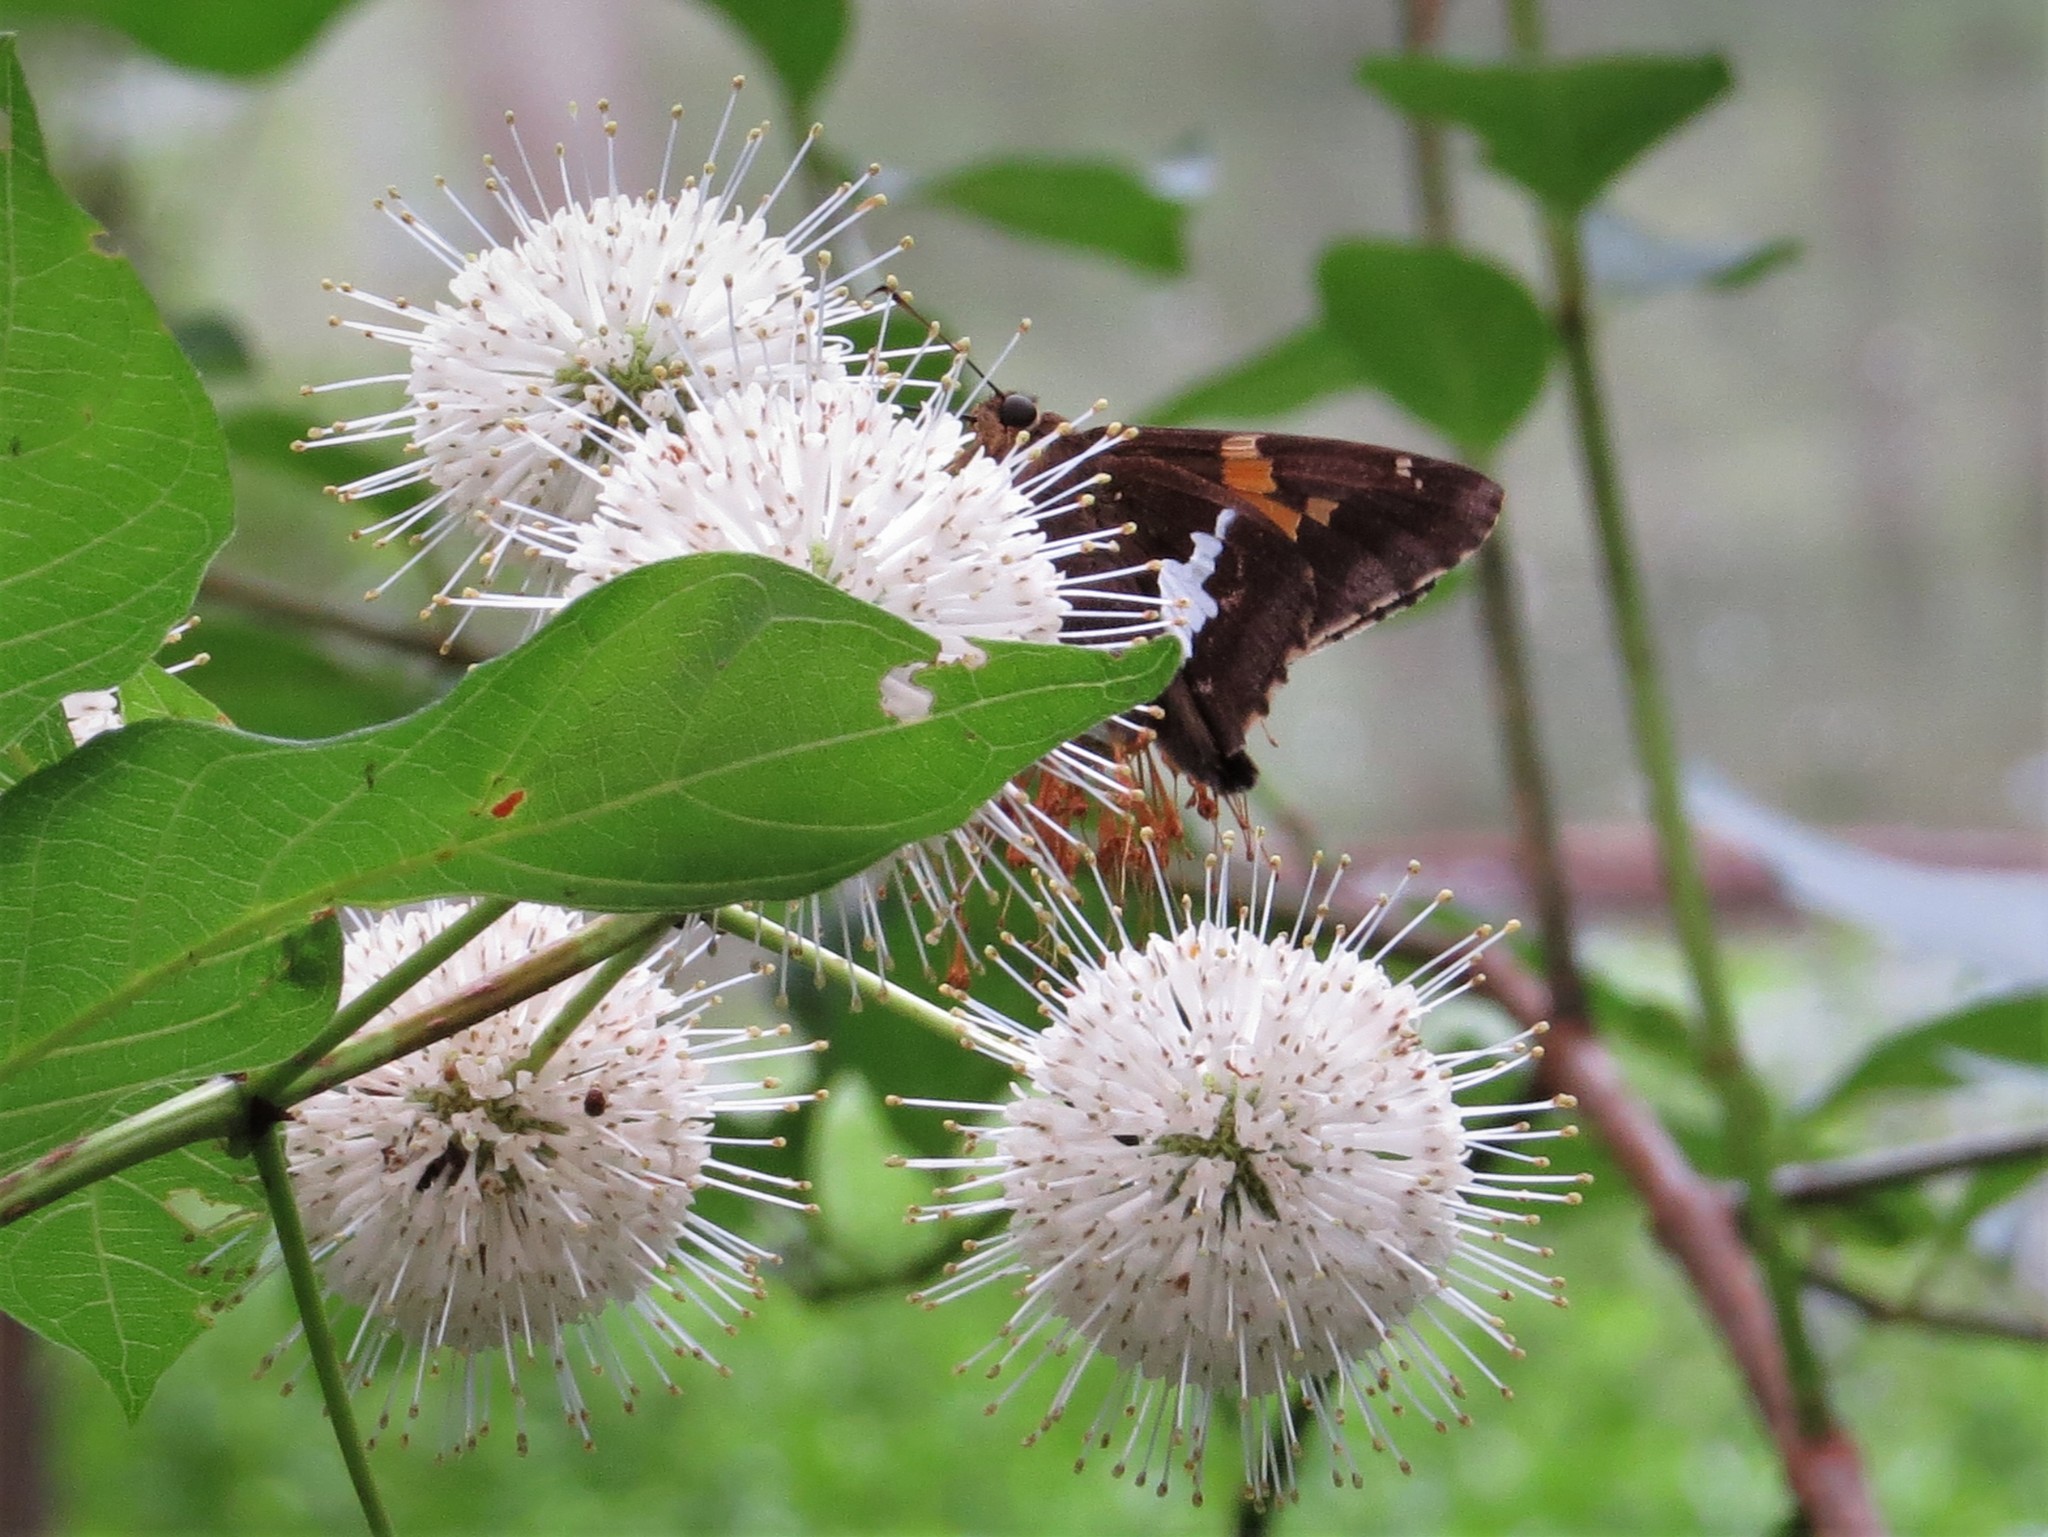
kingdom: Animalia
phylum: Arthropoda
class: Insecta
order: Lepidoptera
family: Hesperiidae
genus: Epargyreus
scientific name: Epargyreus clarus
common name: Silver-spotted skipper
